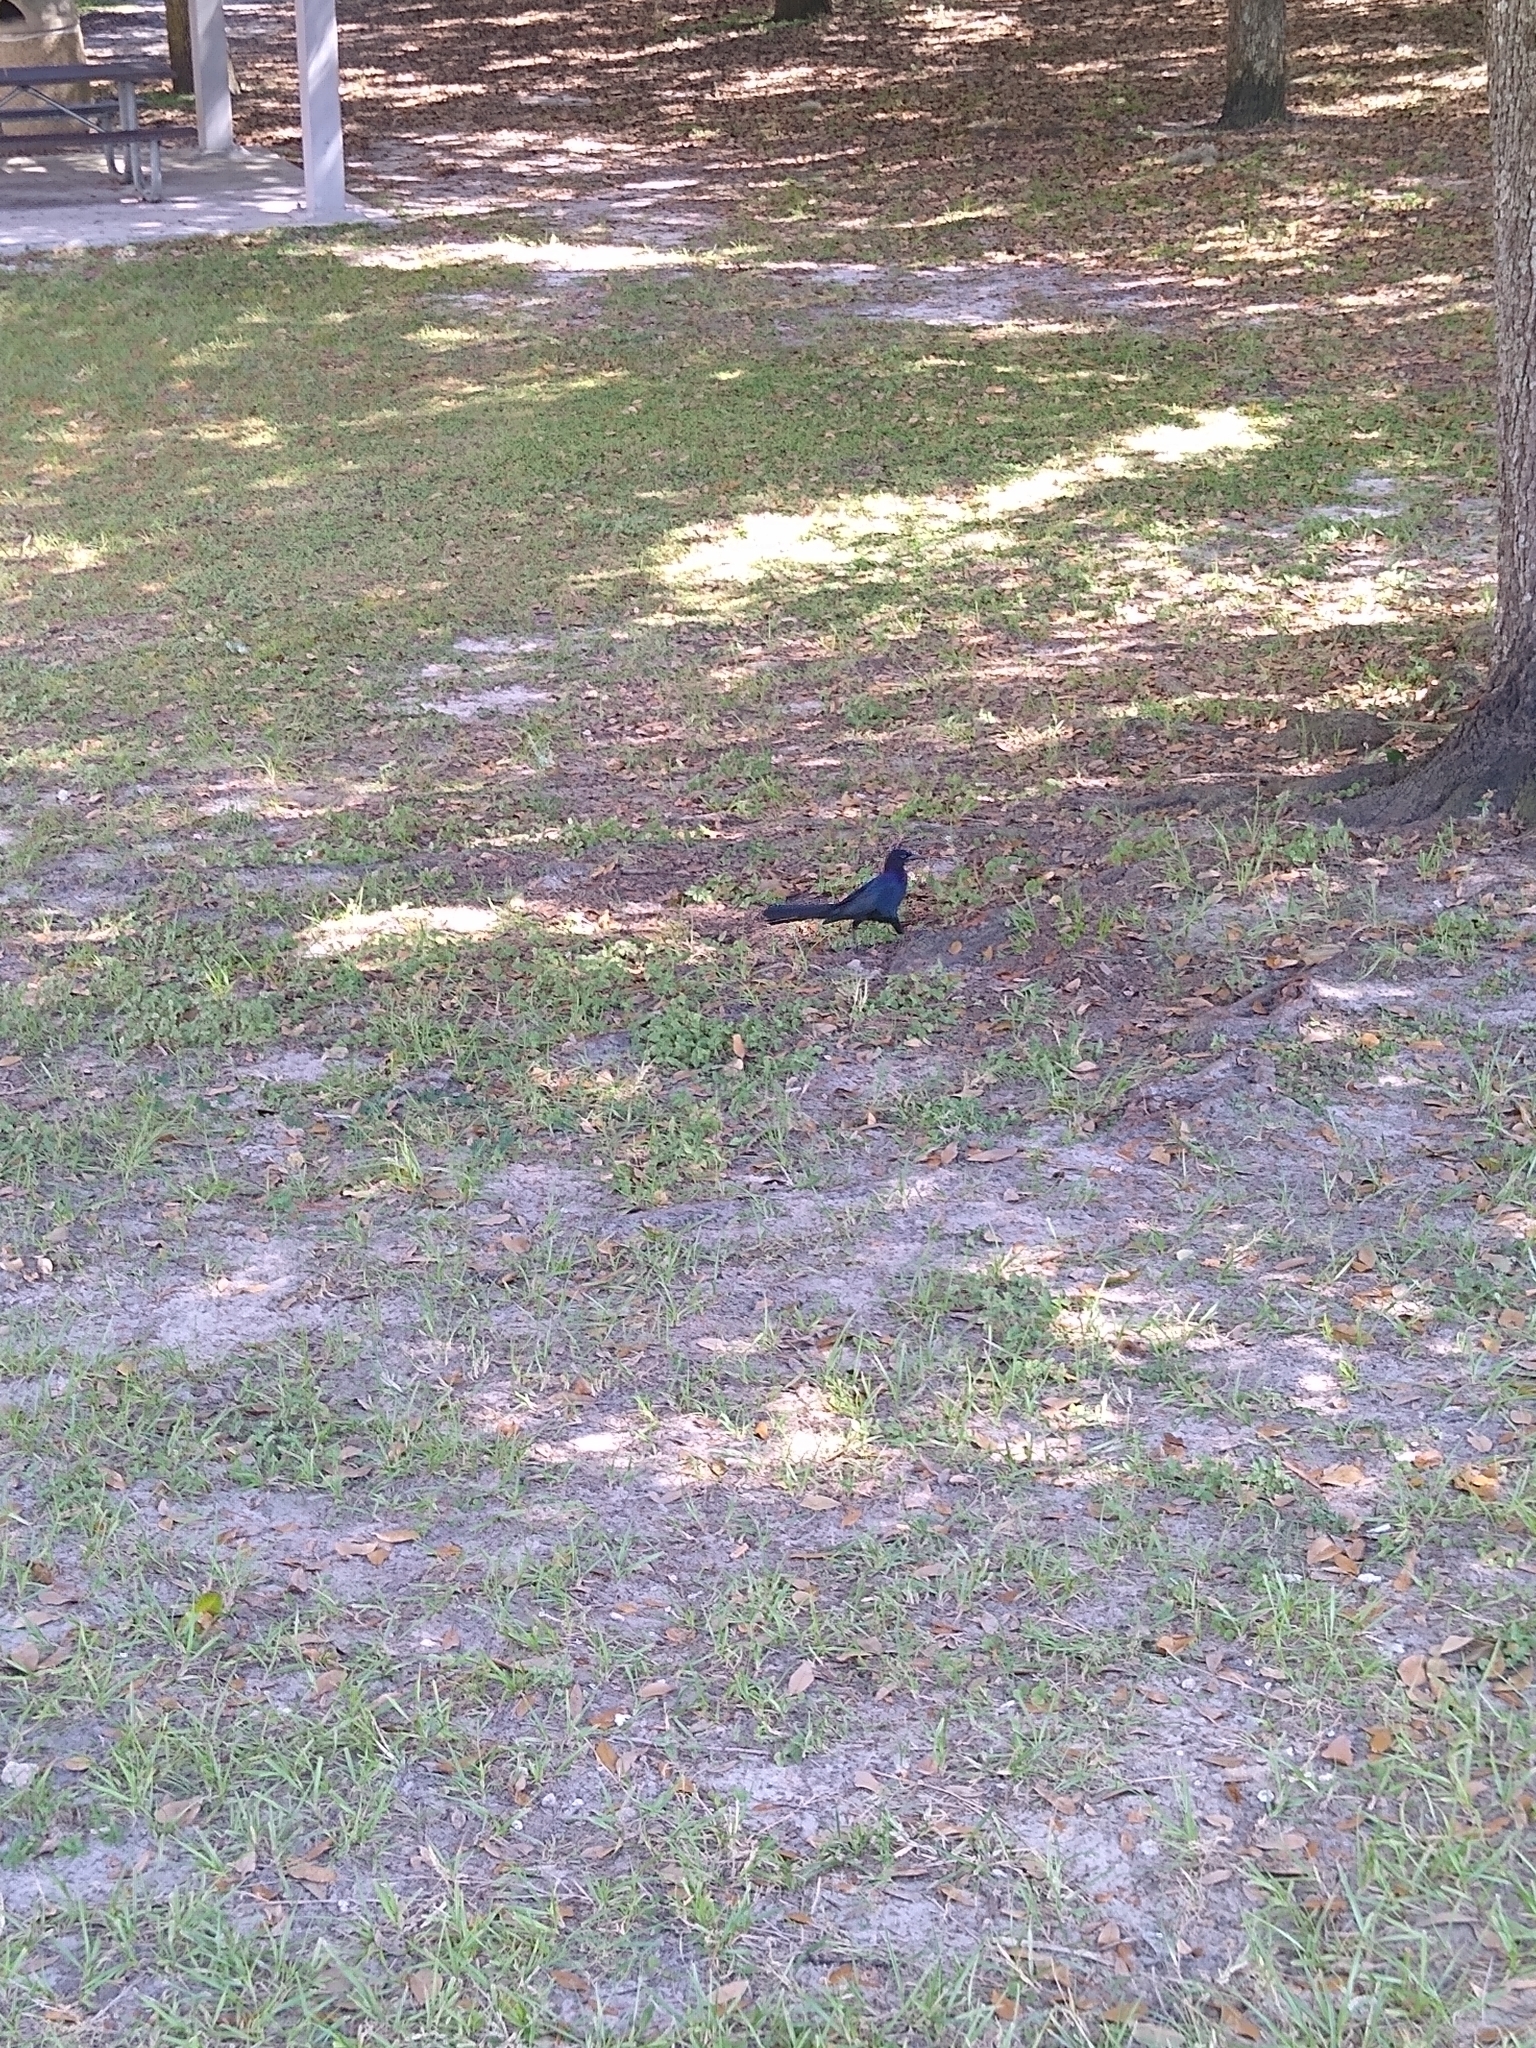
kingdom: Animalia
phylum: Chordata
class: Aves
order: Passeriformes
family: Icteridae
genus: Quiscalus
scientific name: Quiscalus major
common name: Boat-tailed grackle
